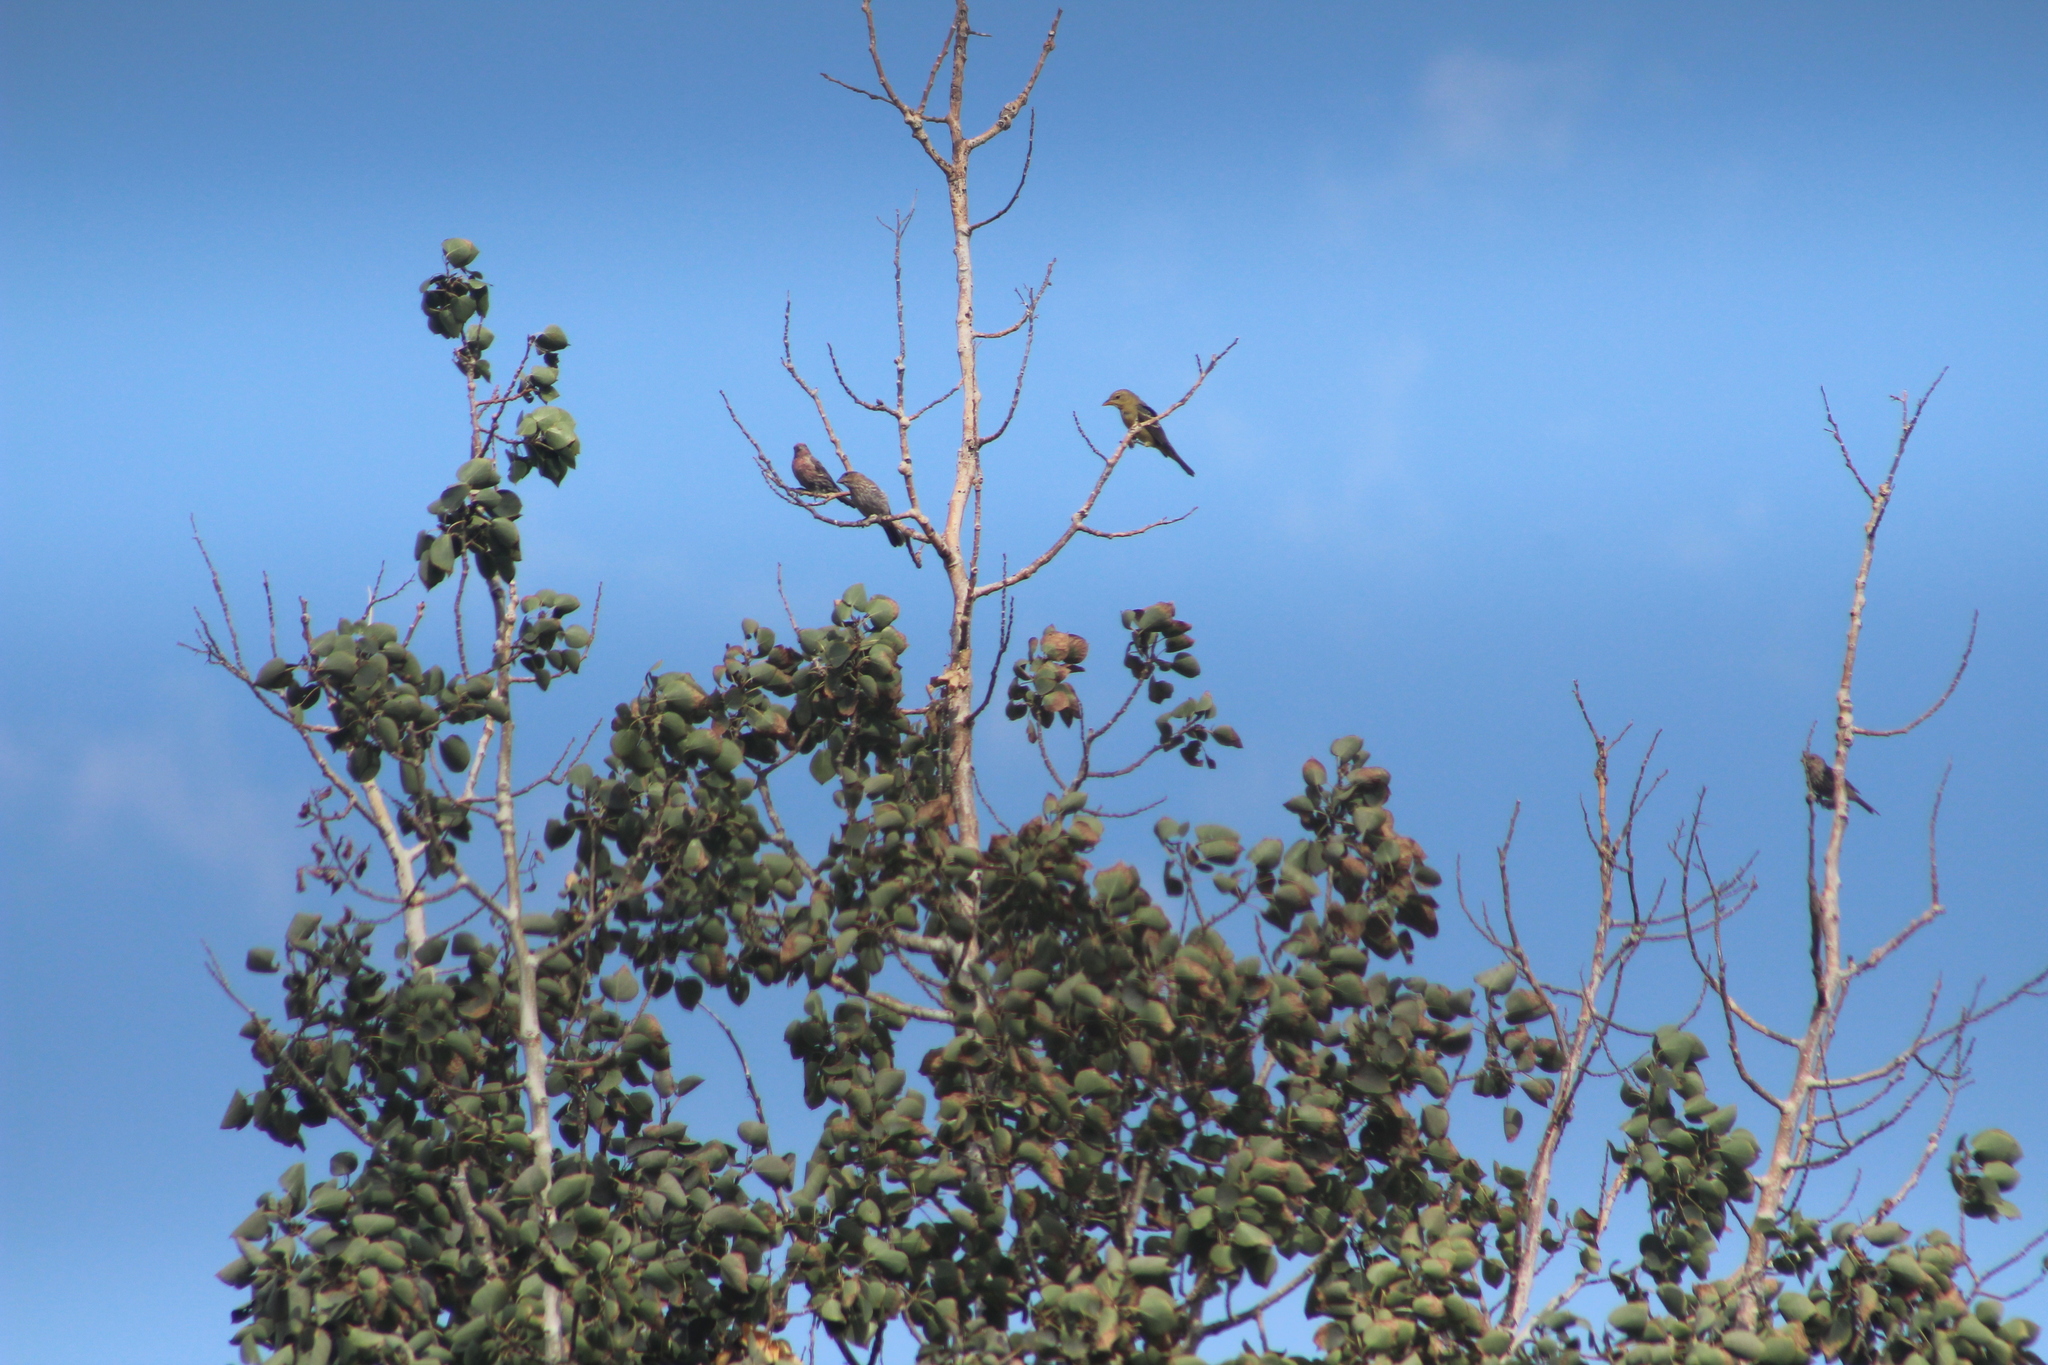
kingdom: Animalia
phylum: Chordata
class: Aves
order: Passeriformes
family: Fringillidae
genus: Haemorhous
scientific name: Haemorhous mexicanus
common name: House finch
